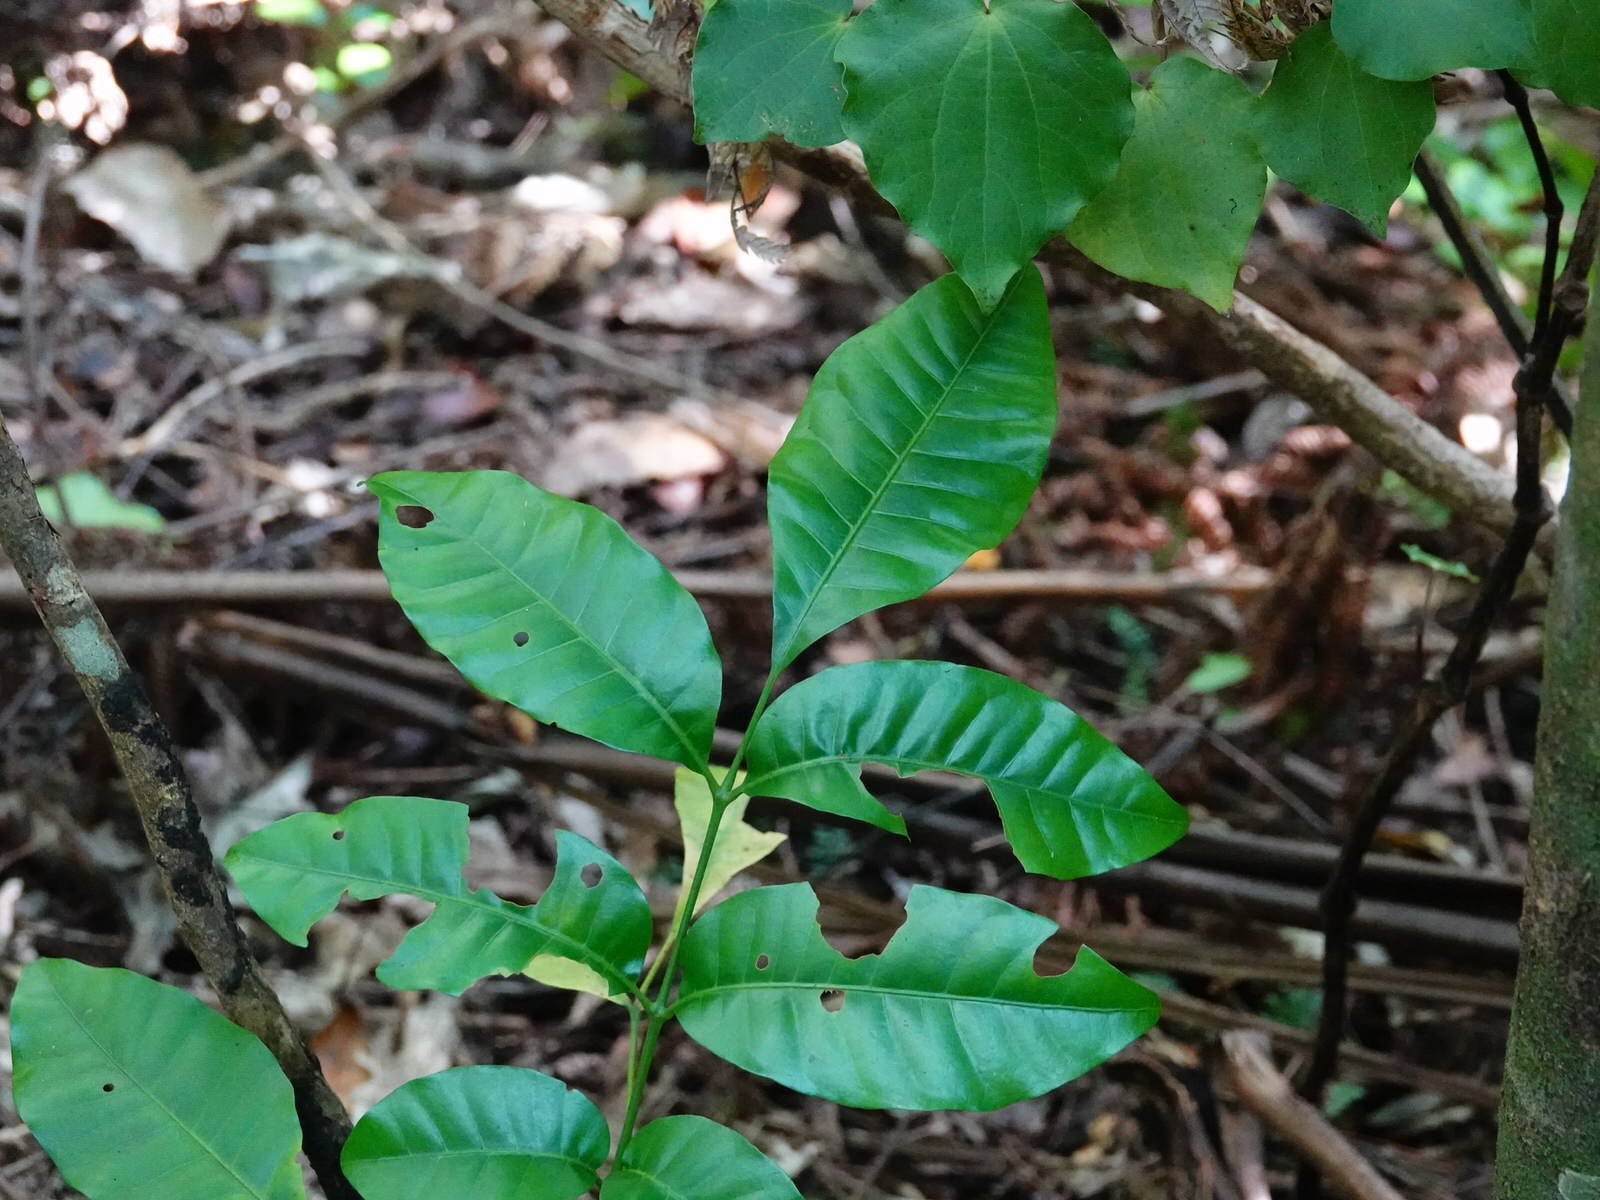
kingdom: Plantae
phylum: Tracheophyta
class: Magnoliopsida
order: Sapindales
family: Meliaceae
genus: Didymocheton
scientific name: Didymocheton spectabilis
